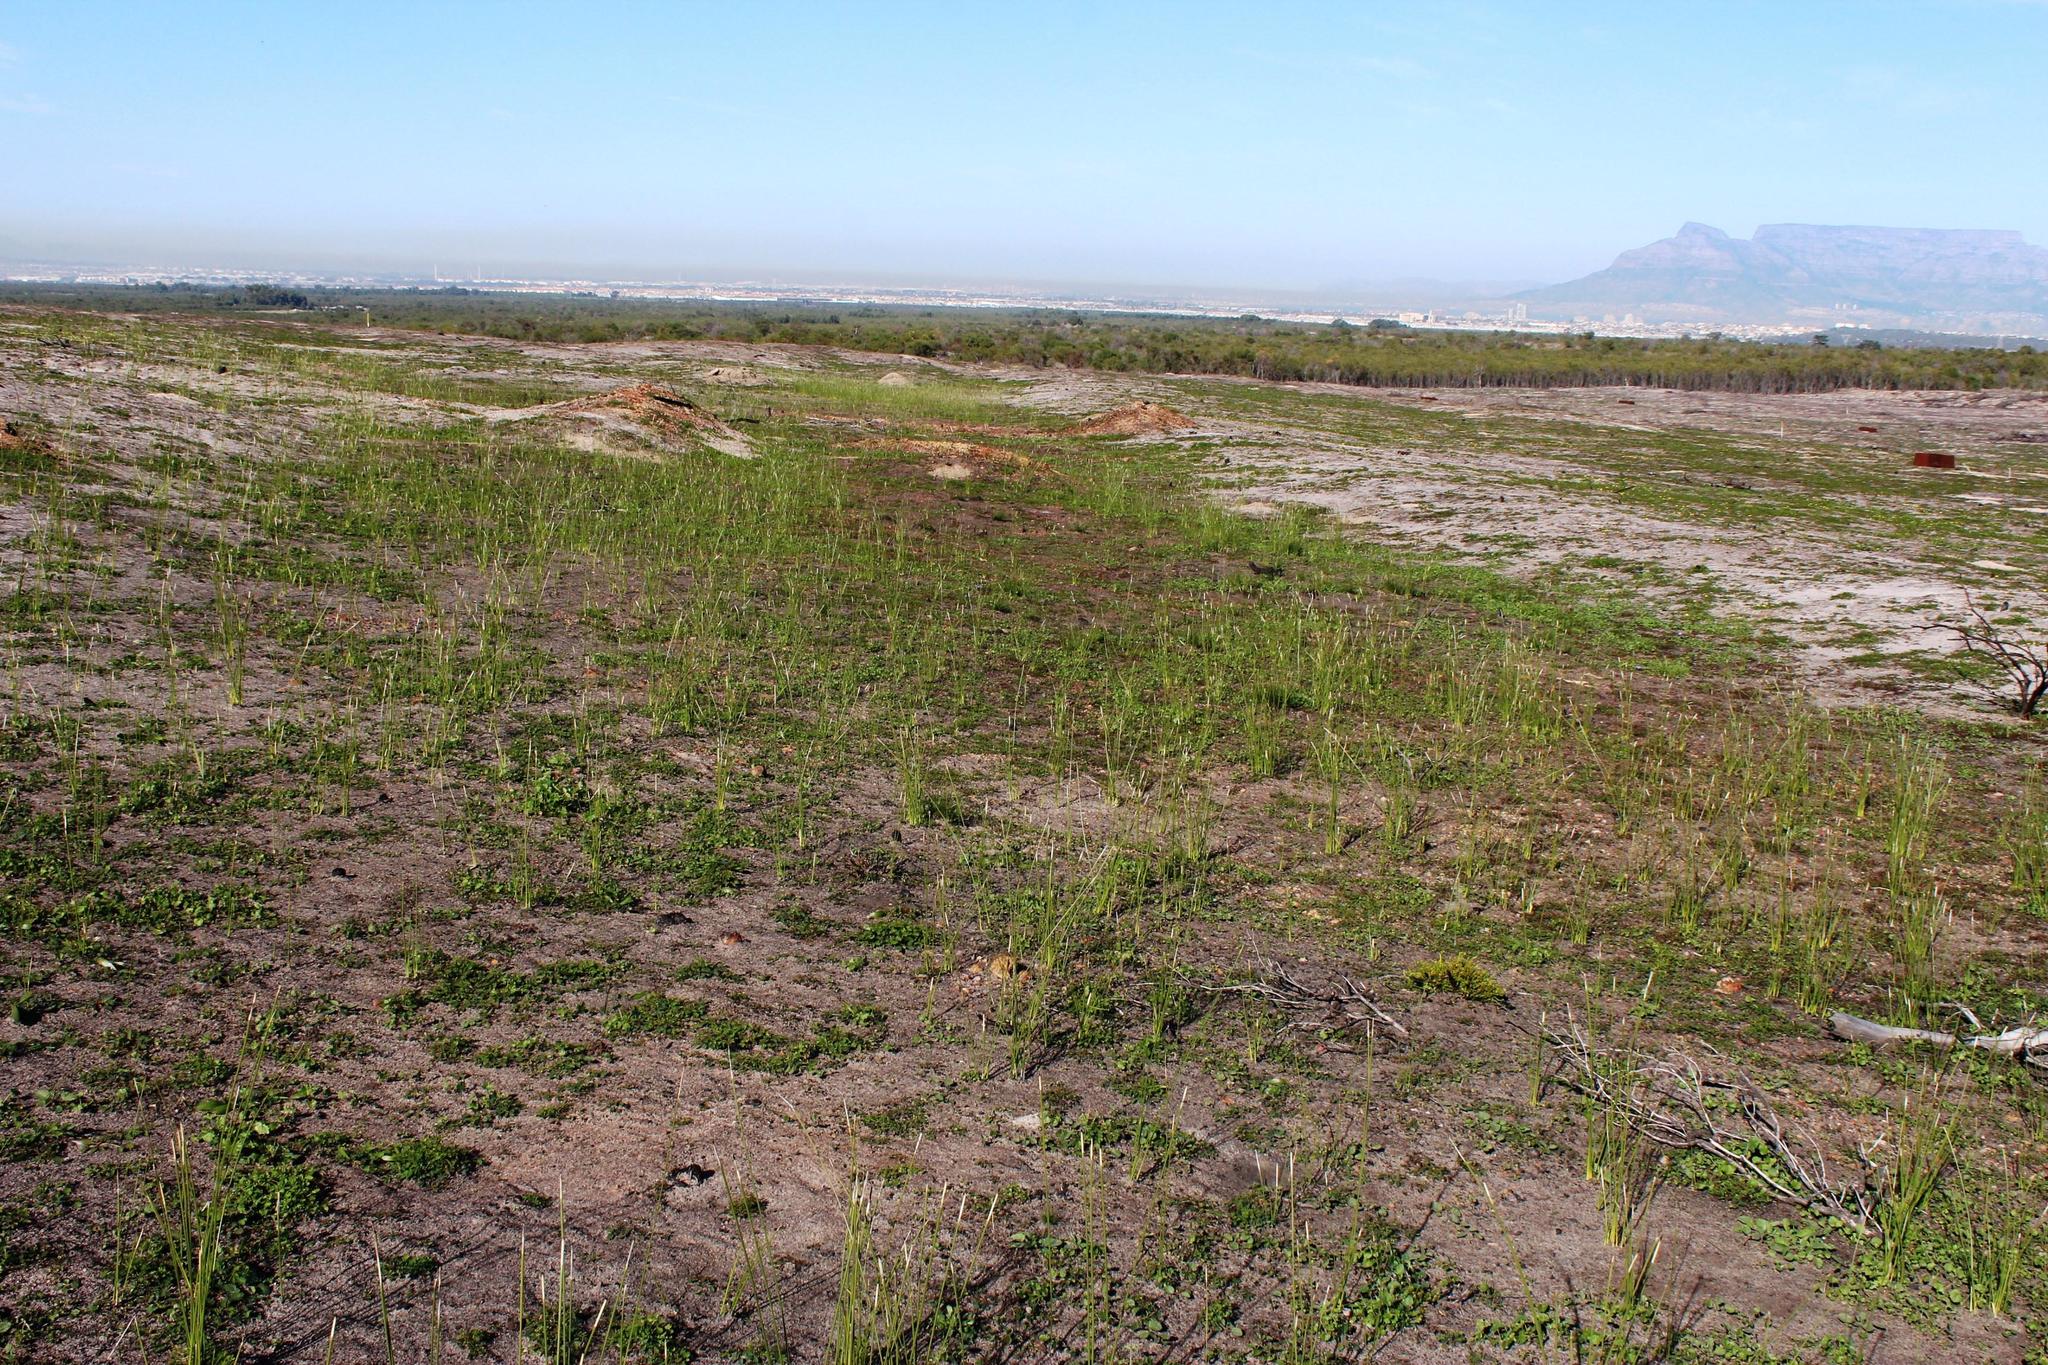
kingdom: Plantae
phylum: Tracheophyta
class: Liliopsida
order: Asparagales
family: Iridaceae
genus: Bobartia
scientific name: Bobartia indica
